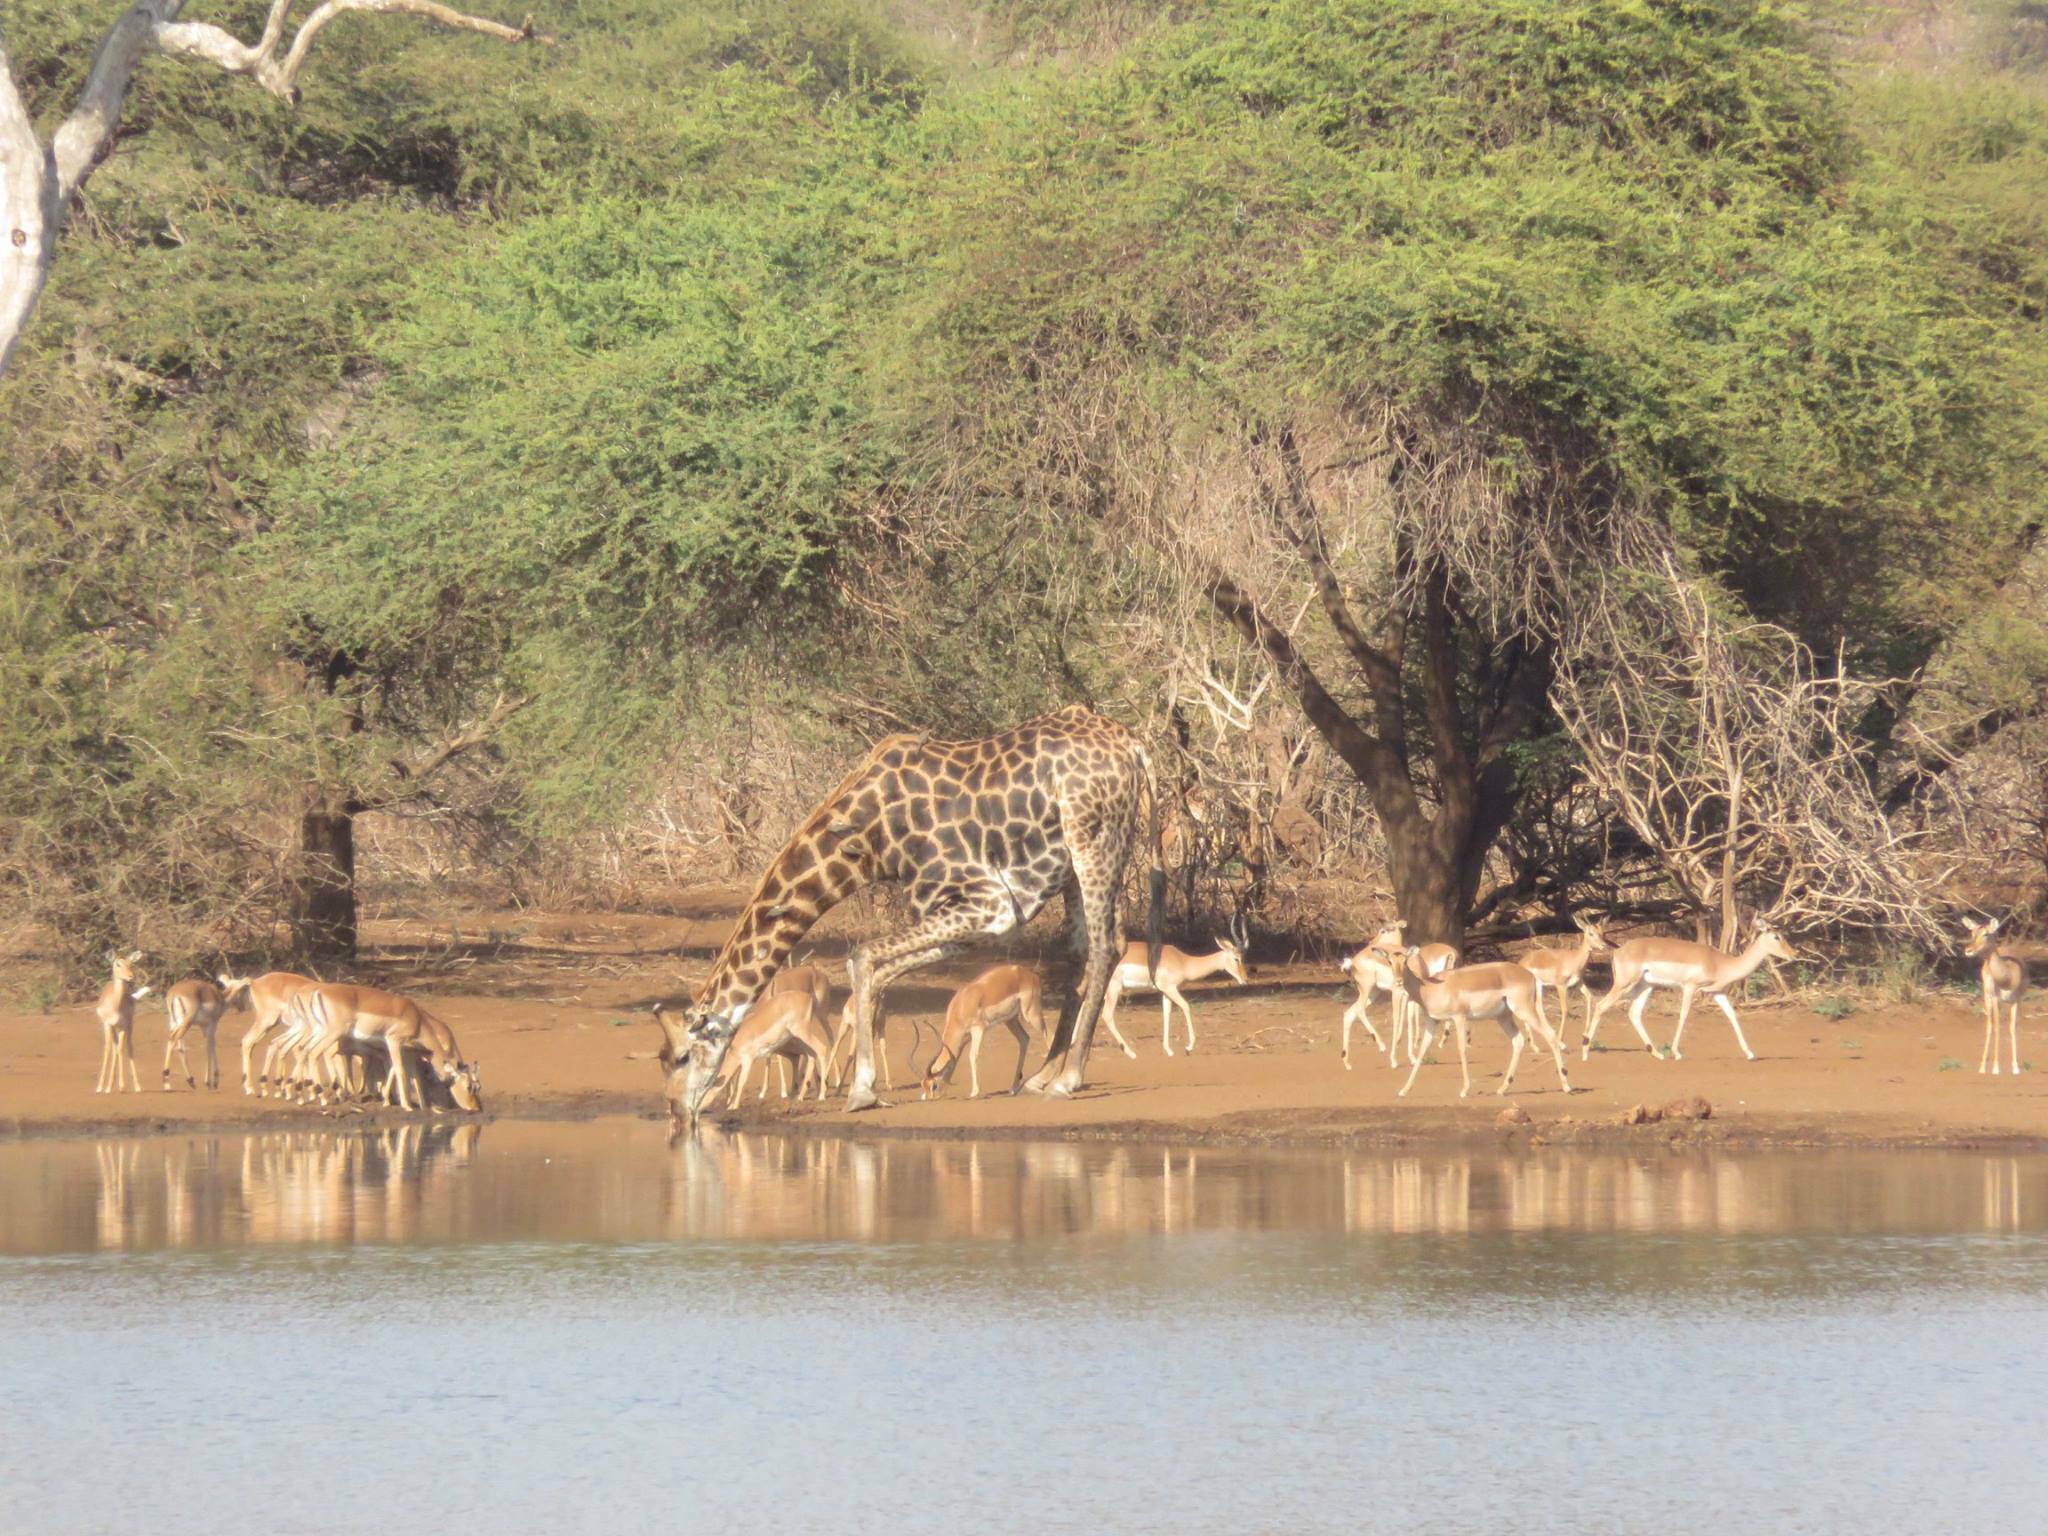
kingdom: Animalia
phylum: Chordata
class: Mammalia
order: Artiodactyla
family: Giraffidae
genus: Giraffa
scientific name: Giraffa giraffa
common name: Southern giraffe
